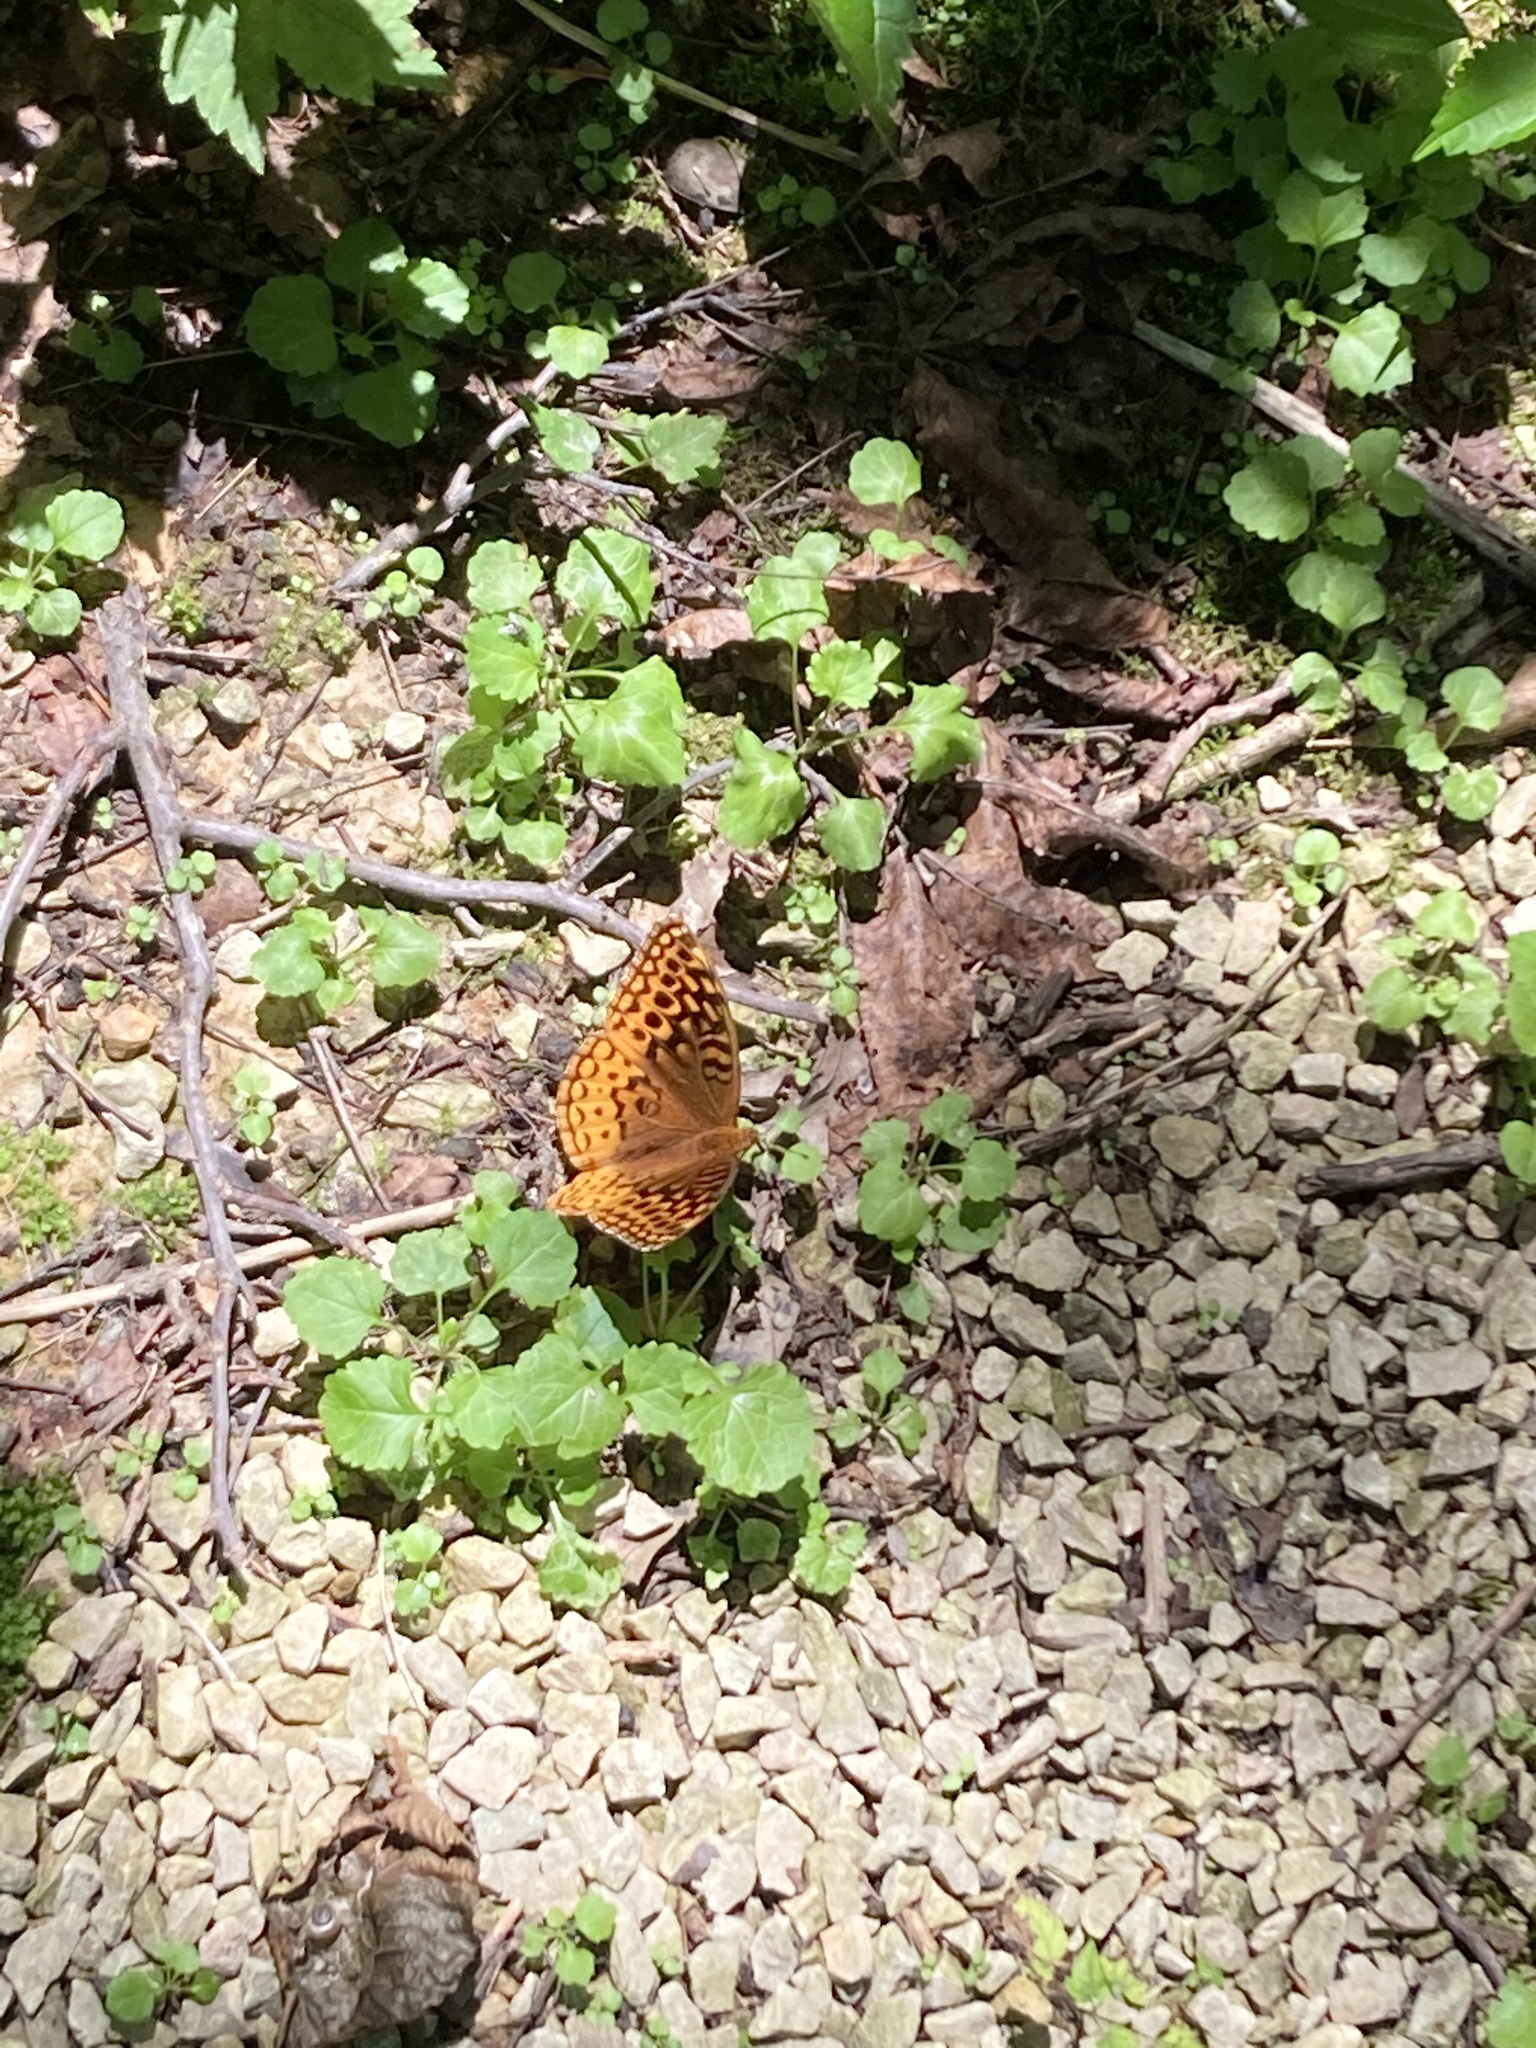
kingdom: Animalia
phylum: Arthropoda
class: Insecta
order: Lepidoptera
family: Nymphalidae
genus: Speyeria
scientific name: Speyeria cybele
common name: Great spangled fritillary
